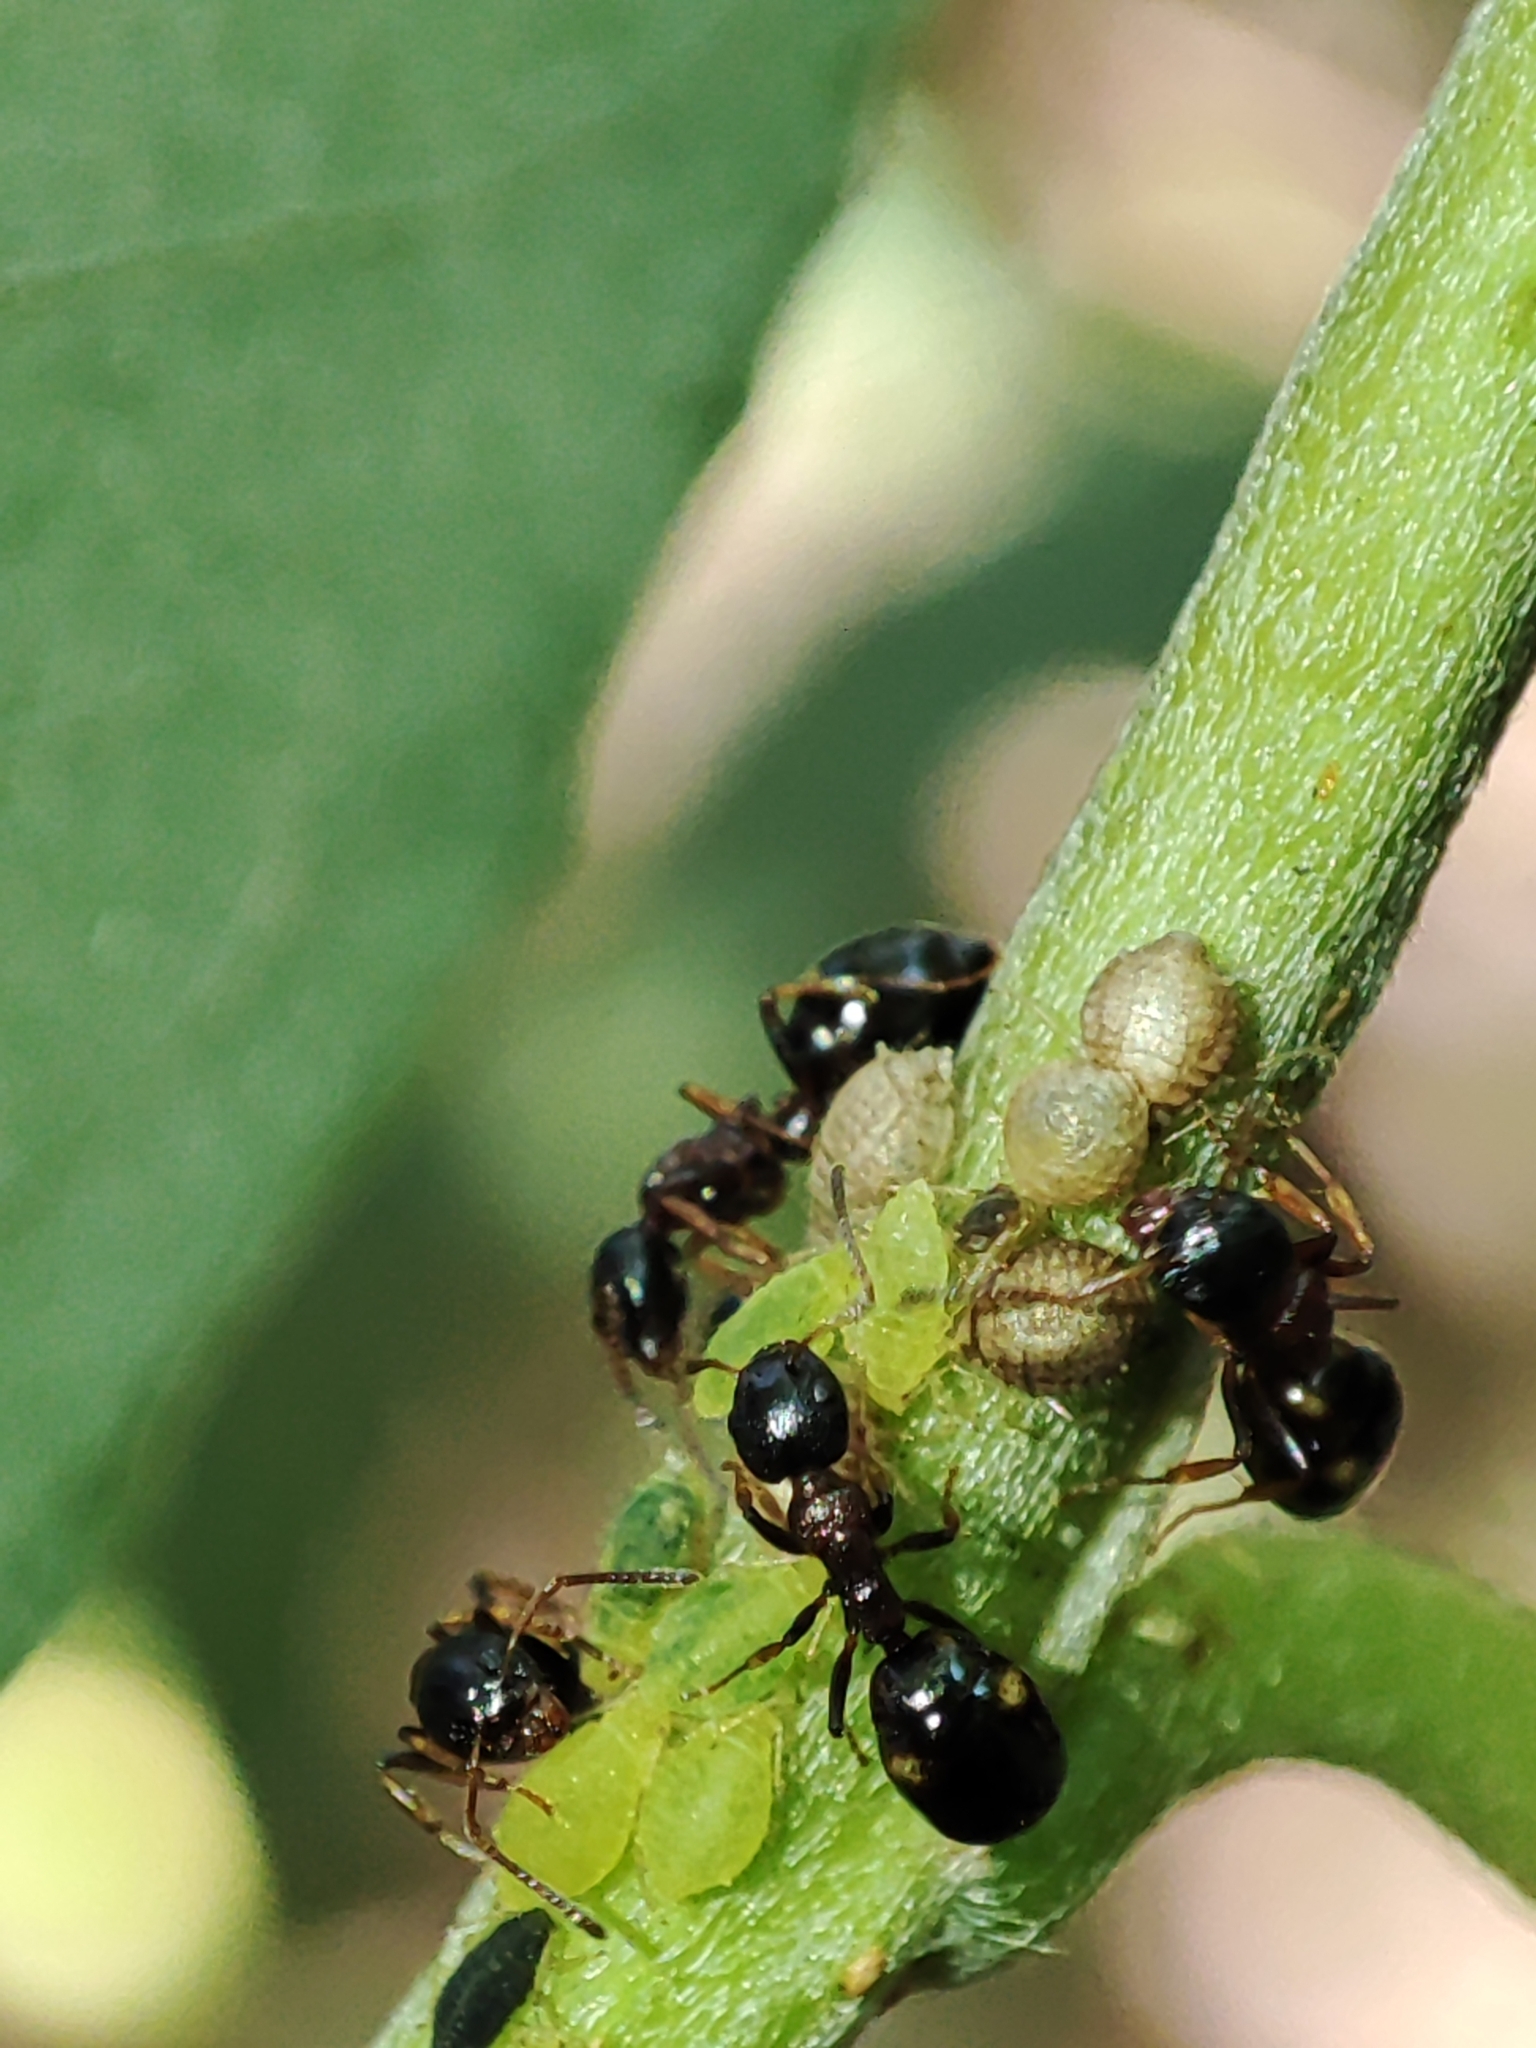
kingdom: Animalia
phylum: Arthropoda
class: Insecta
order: Hymenoptera
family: Formicidae
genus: Dolichoderus
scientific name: Dolichoderus quadripunctatus
